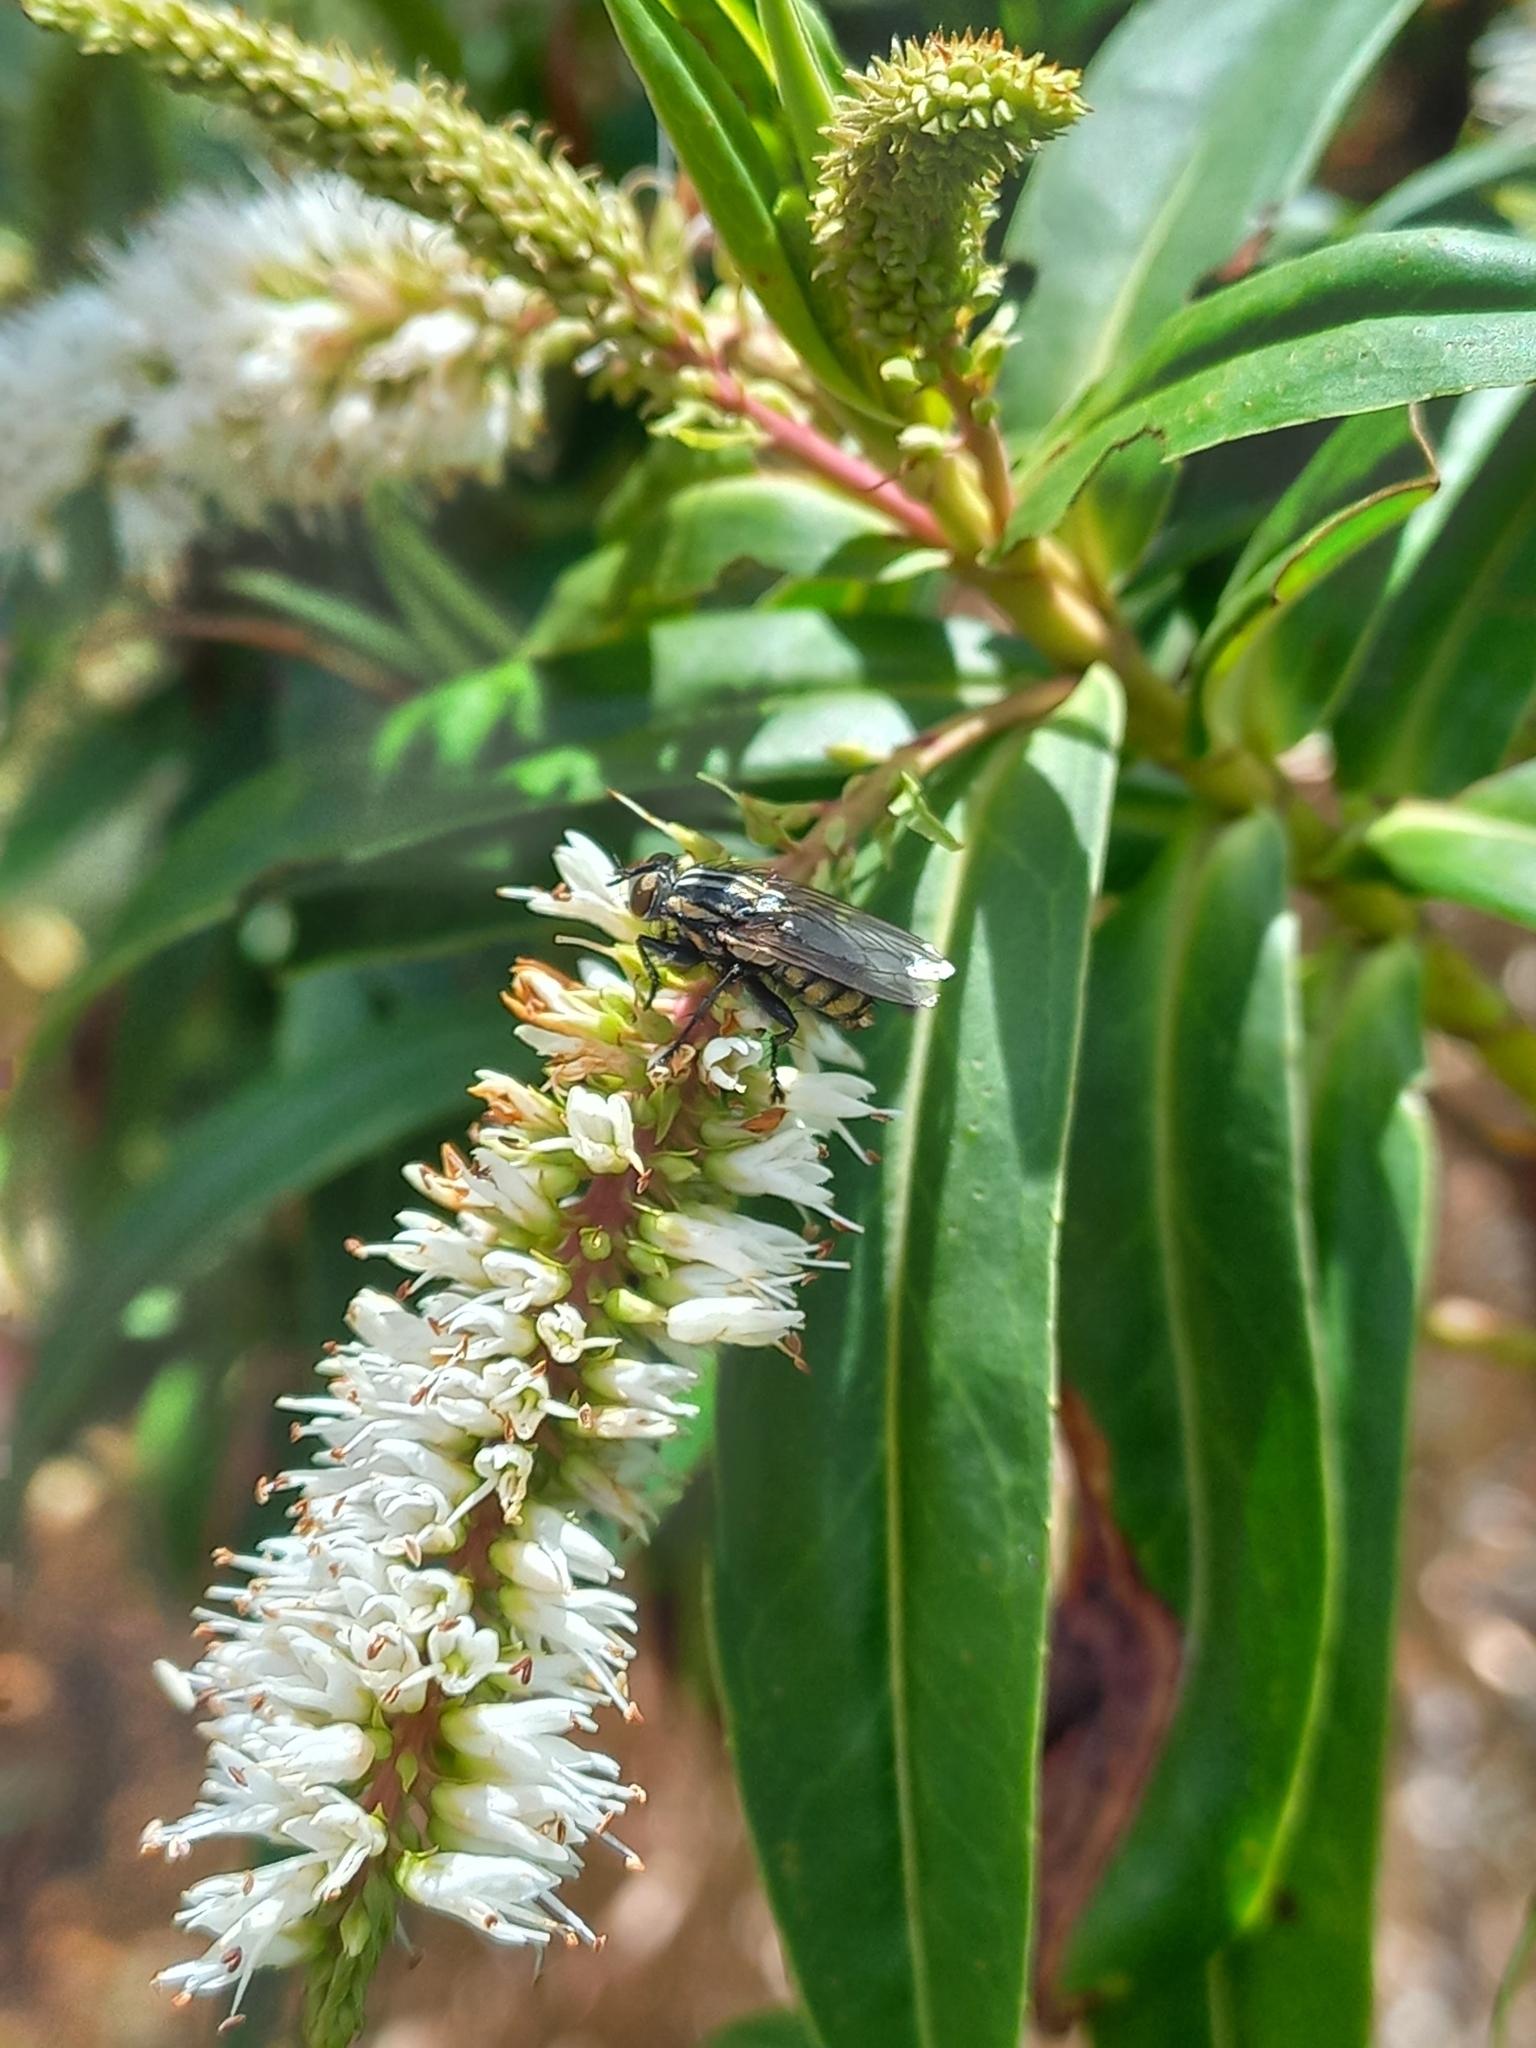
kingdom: Animalia
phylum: Arthropoda
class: Insecta
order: Diptera
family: Sarcophagidae
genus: Oxysarcodexia
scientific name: Oxysarcodexia varia
